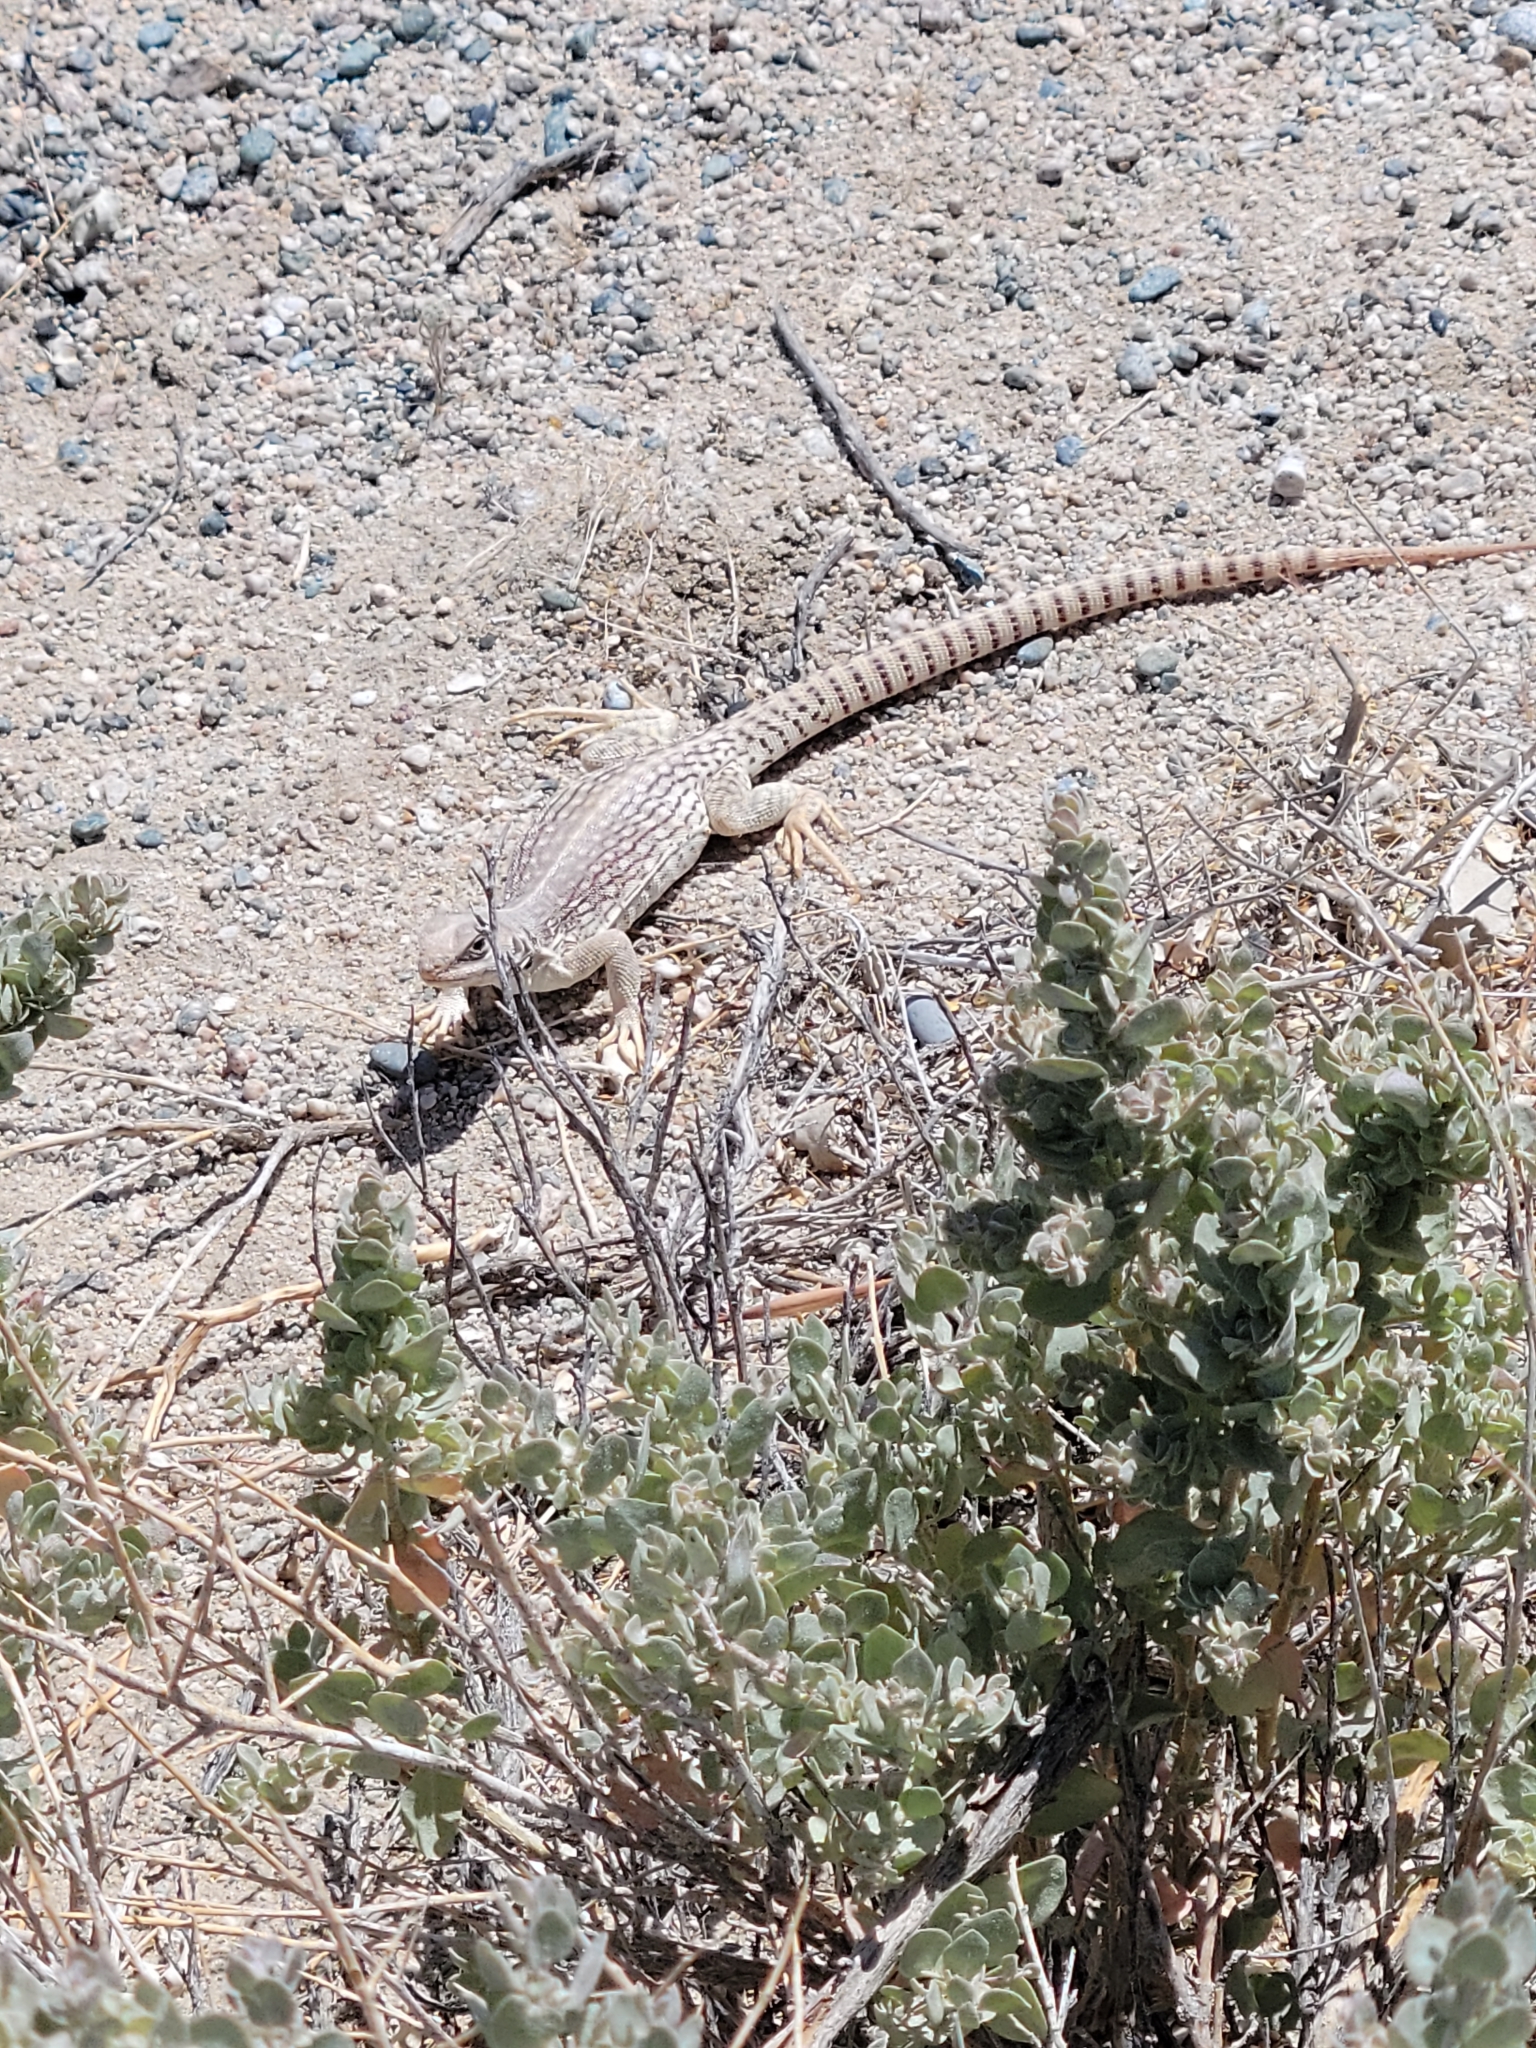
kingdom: Animalia
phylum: Chordata
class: Squamata
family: Iguanidae
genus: Dipsosaurus
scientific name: Dipsosaurus dorsalis
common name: Desert iguana
